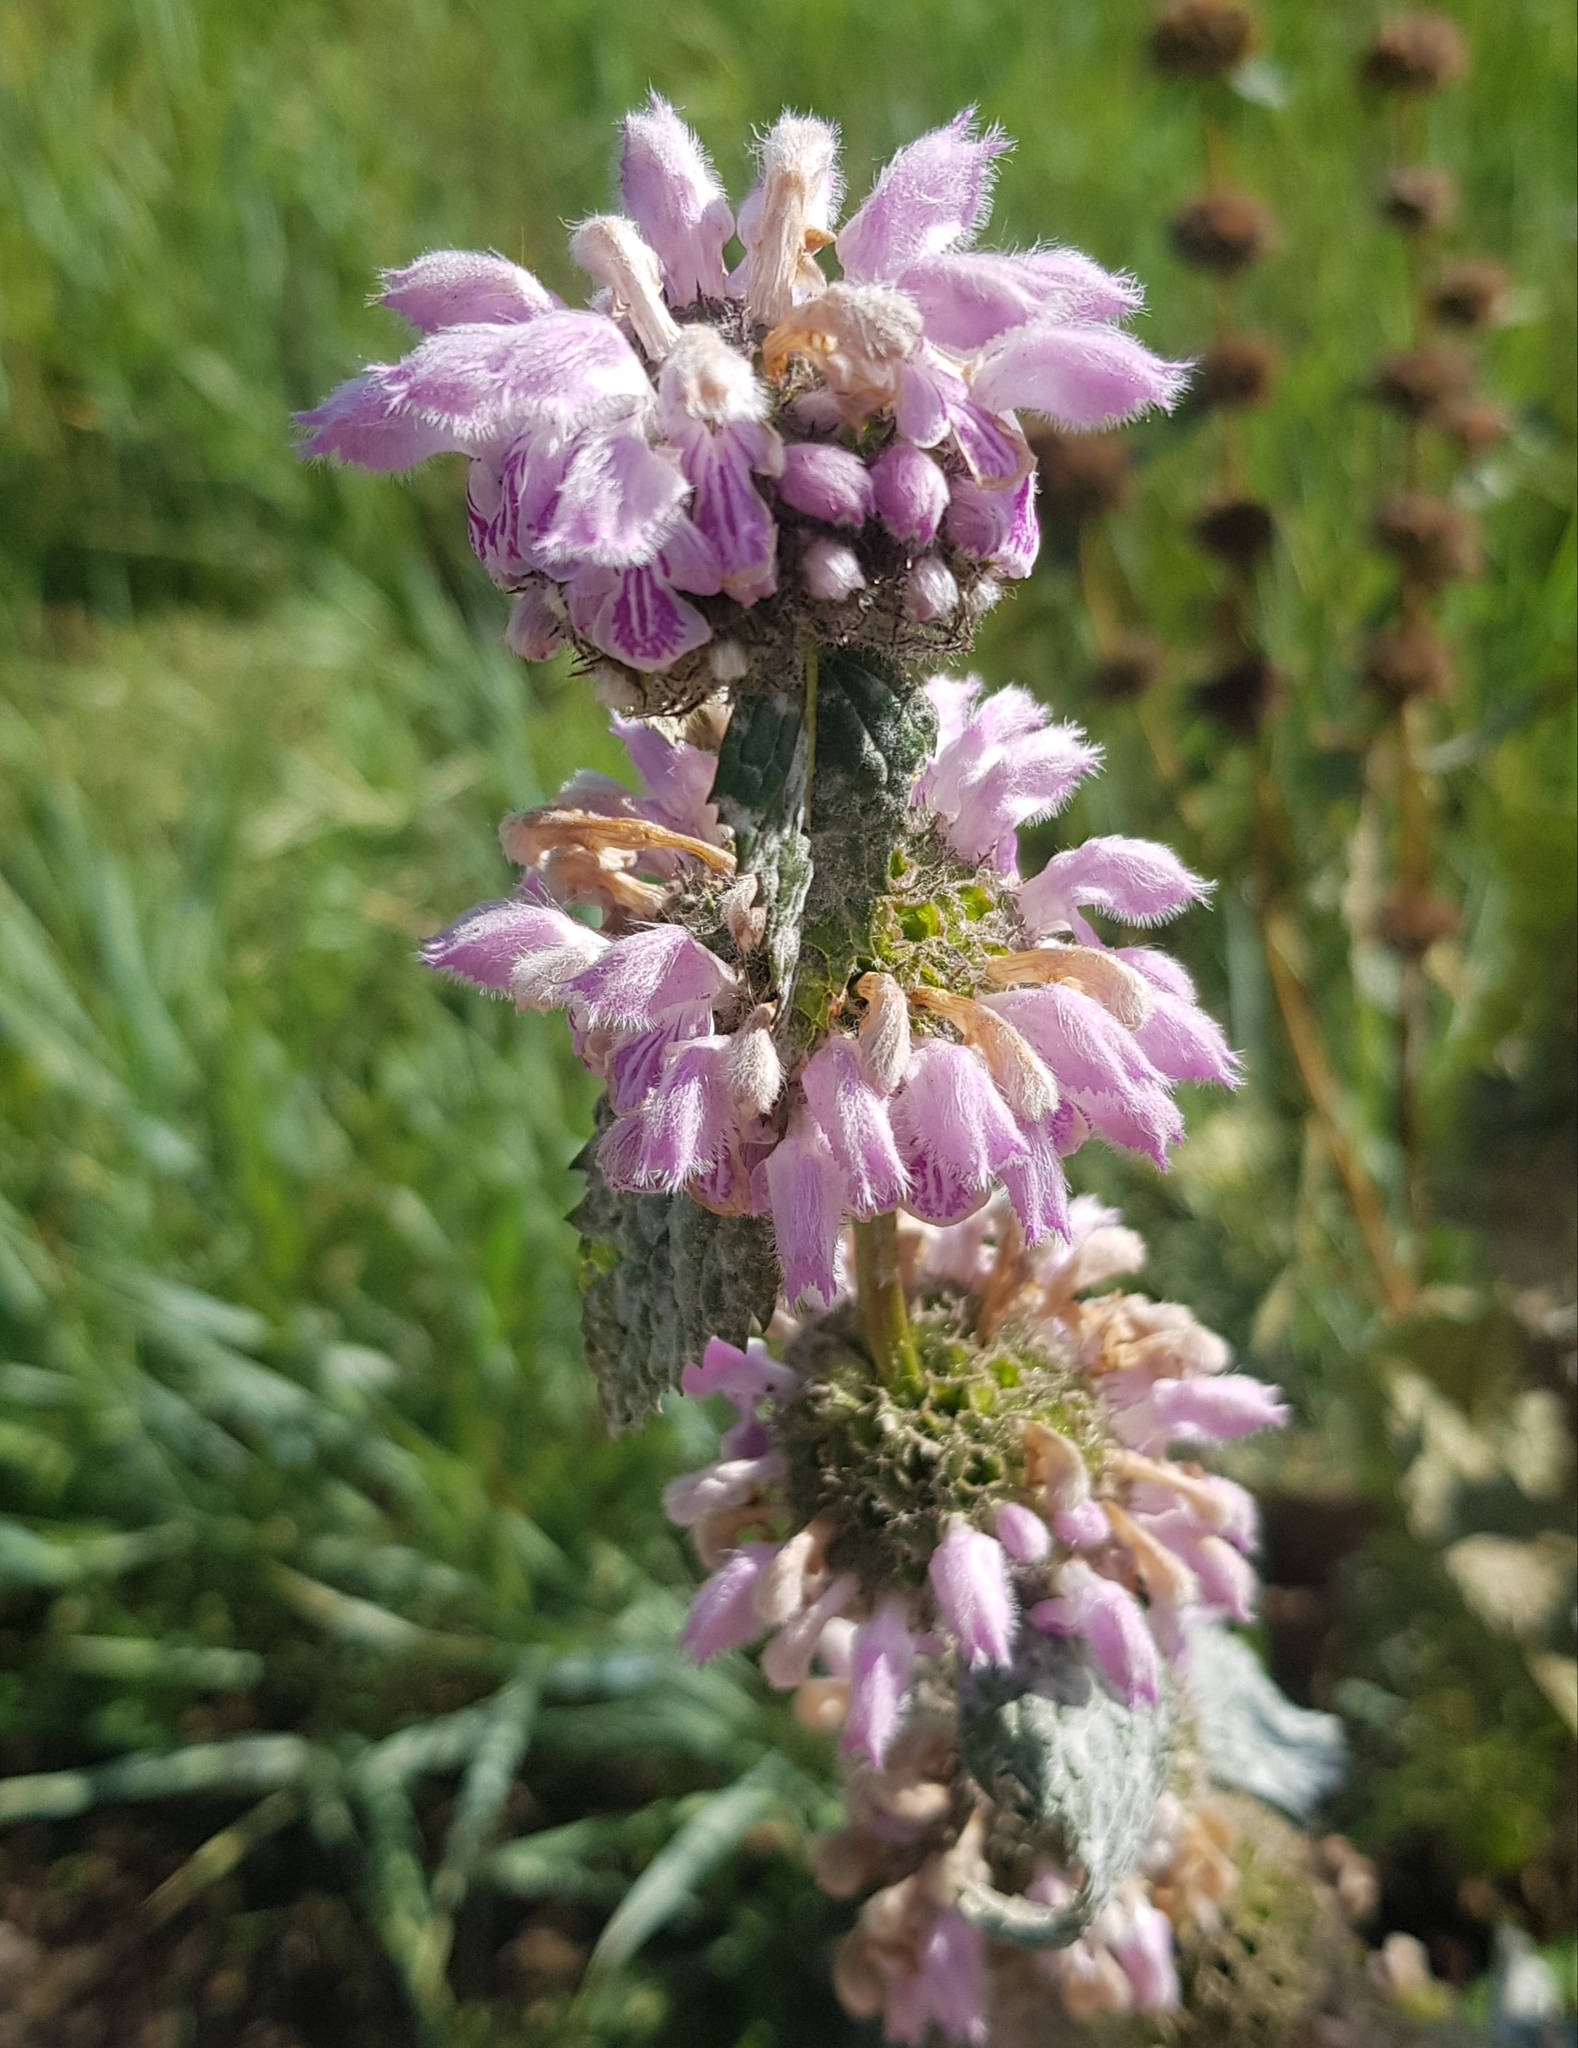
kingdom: Plantae
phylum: Tracheophyta
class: Magnoliopsida
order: Lamiales
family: Lamiaceae
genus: Phlomoides
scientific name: Phlomoides tuberosa
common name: Tuberous jerusalem sage
